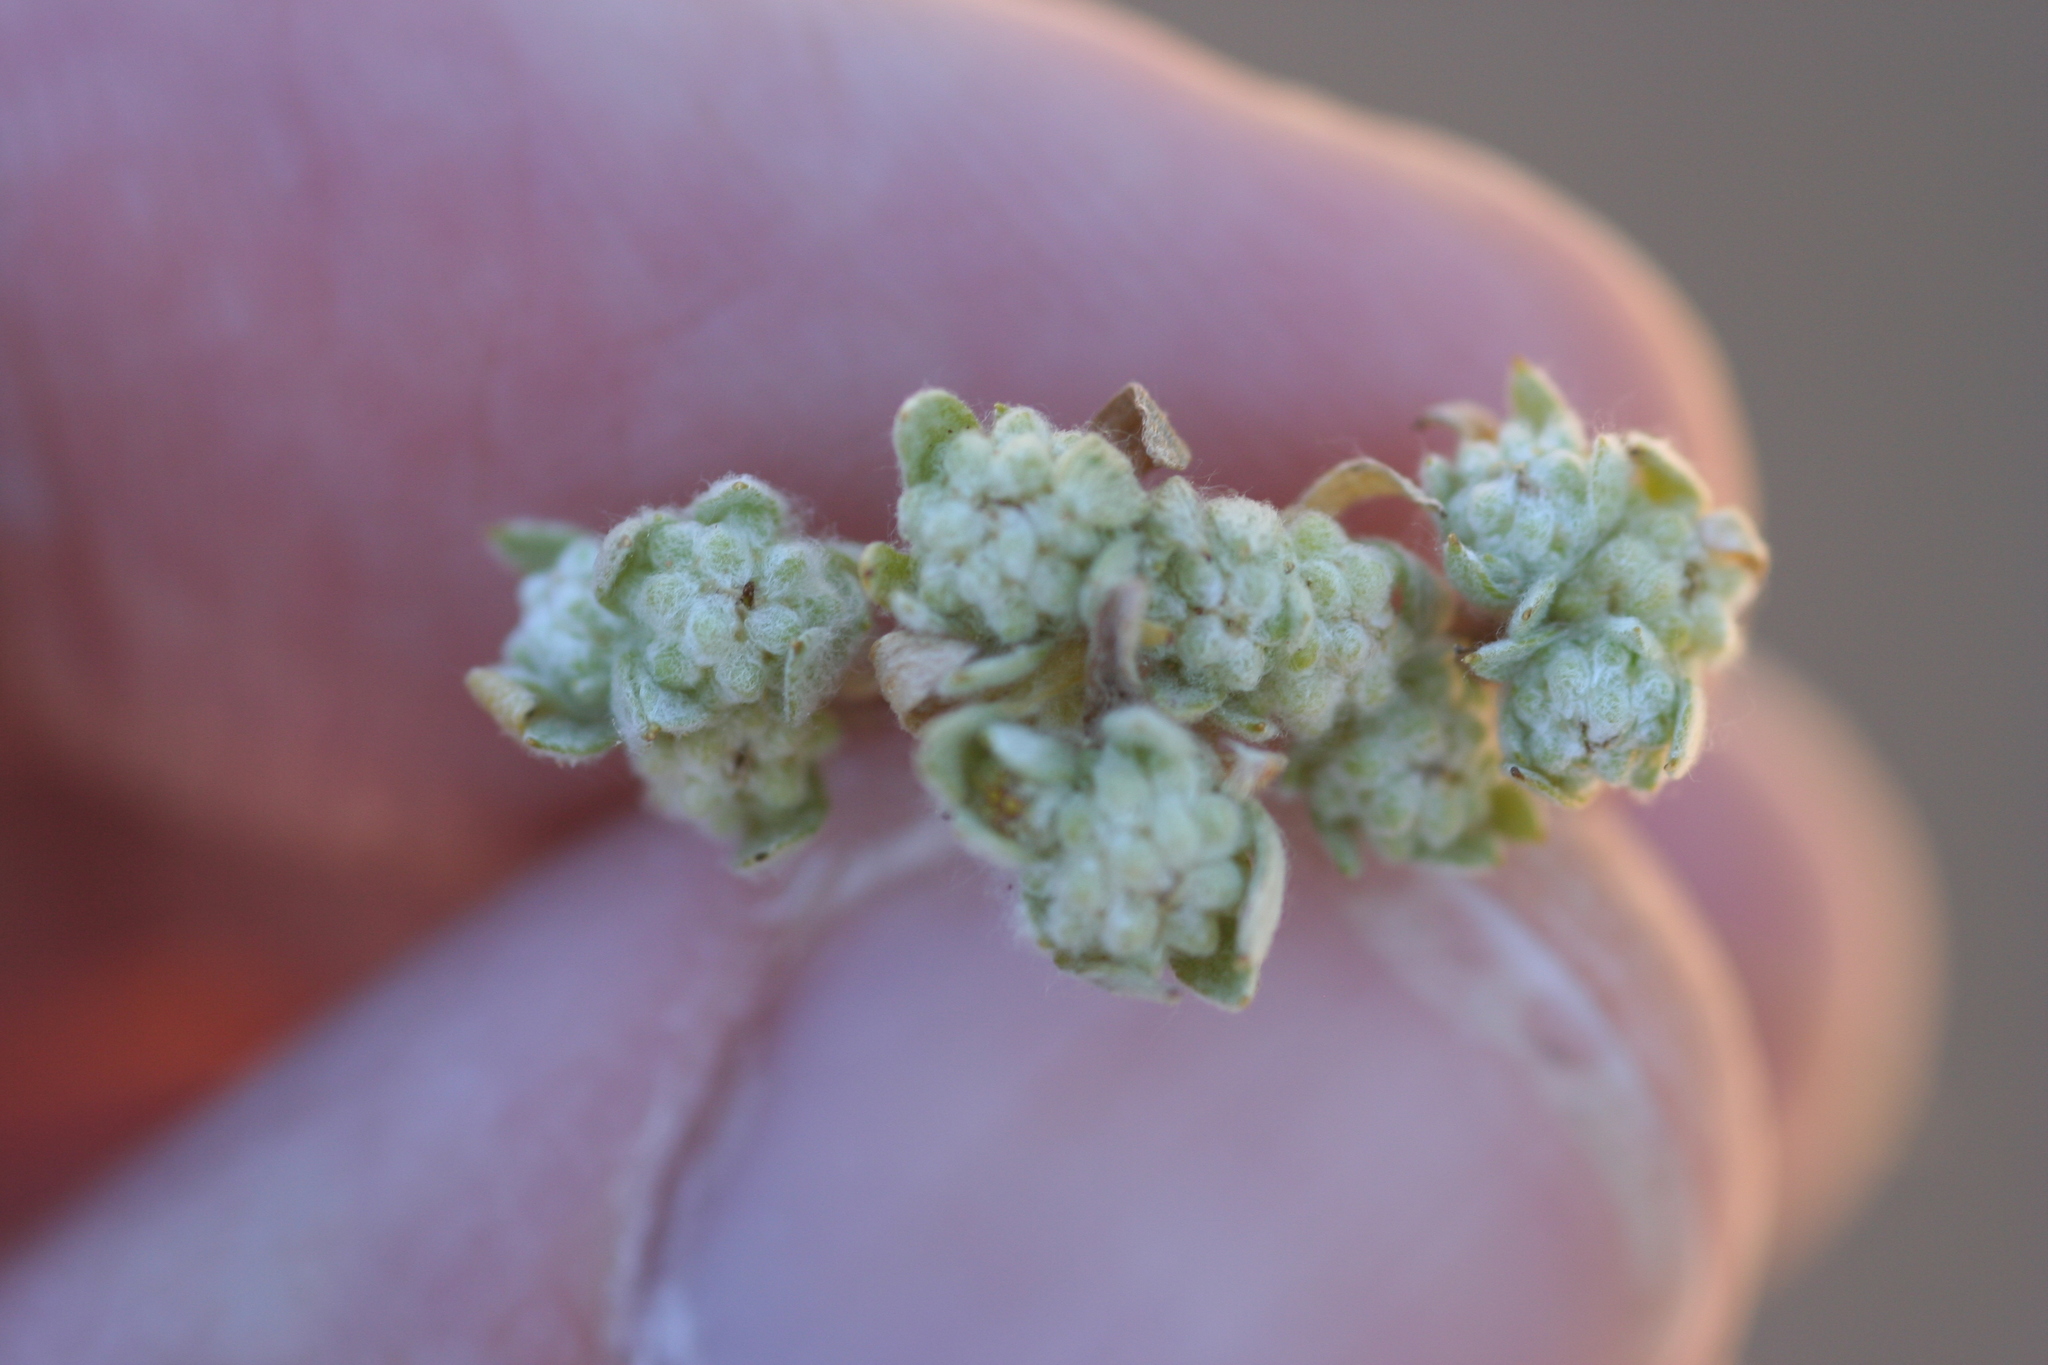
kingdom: Plantae
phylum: Tracheophyta
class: Magnoliopsida
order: Asterales
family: Asteraceae
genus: Psilocarphus
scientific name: Psilocarphus tenellus
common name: Slender woolly-marbles
